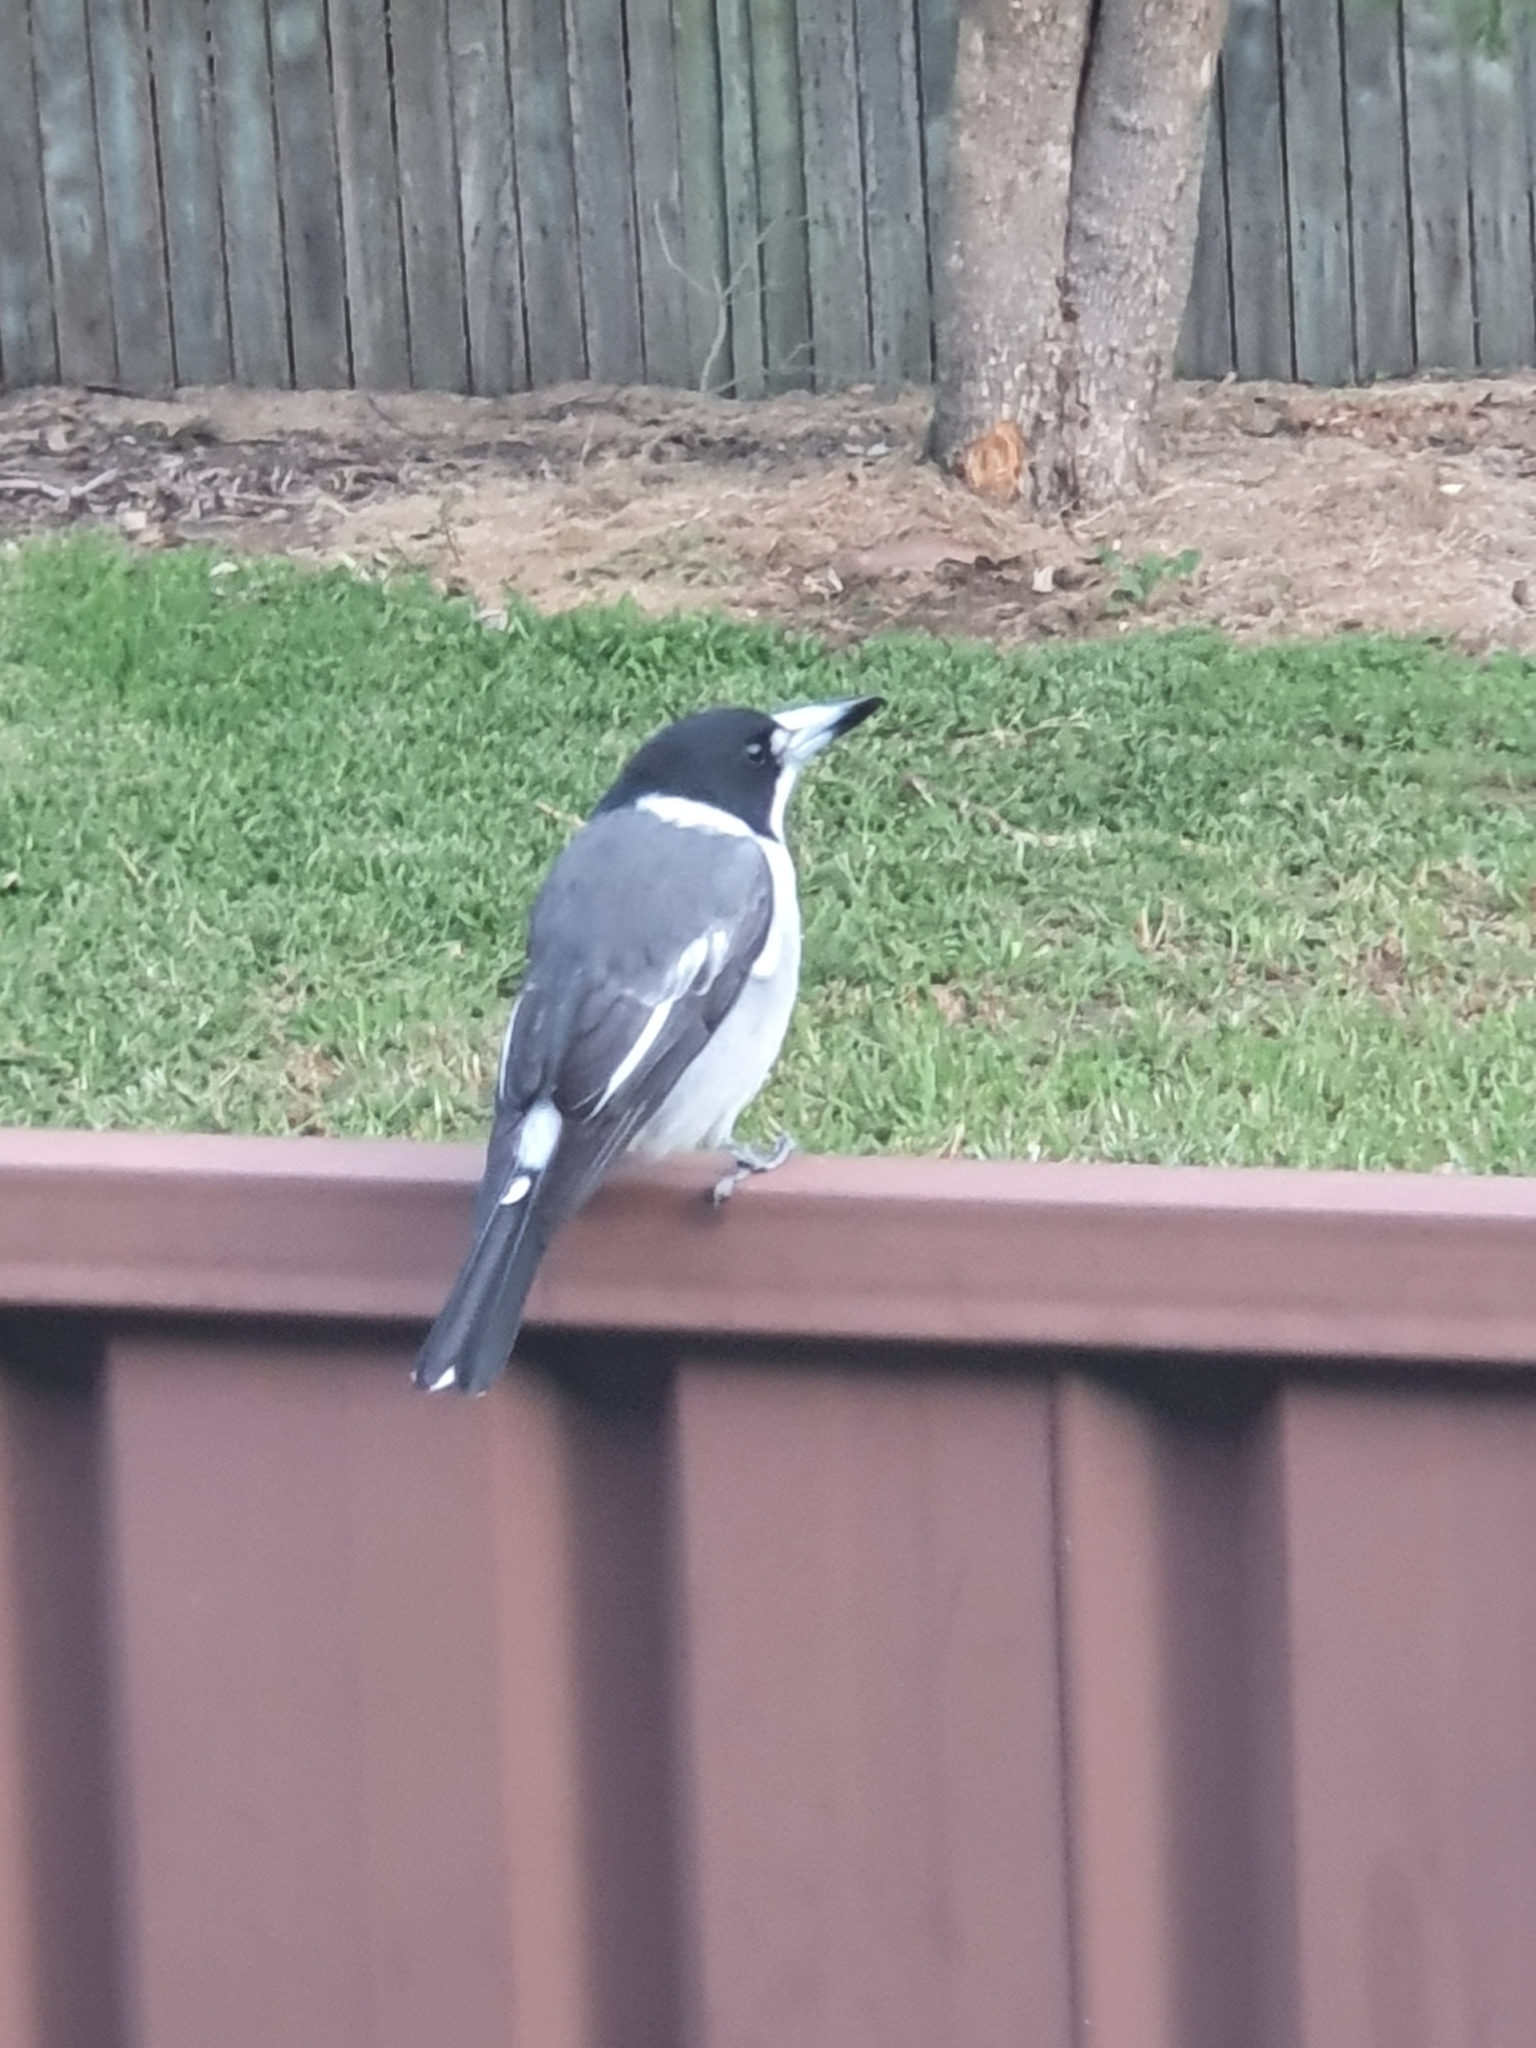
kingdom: Animalia
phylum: Chordata
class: Aves
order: Passeriformes
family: Cracticidae
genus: Cracticus
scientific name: Cracticus torquatus
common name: Grey butcherbird
